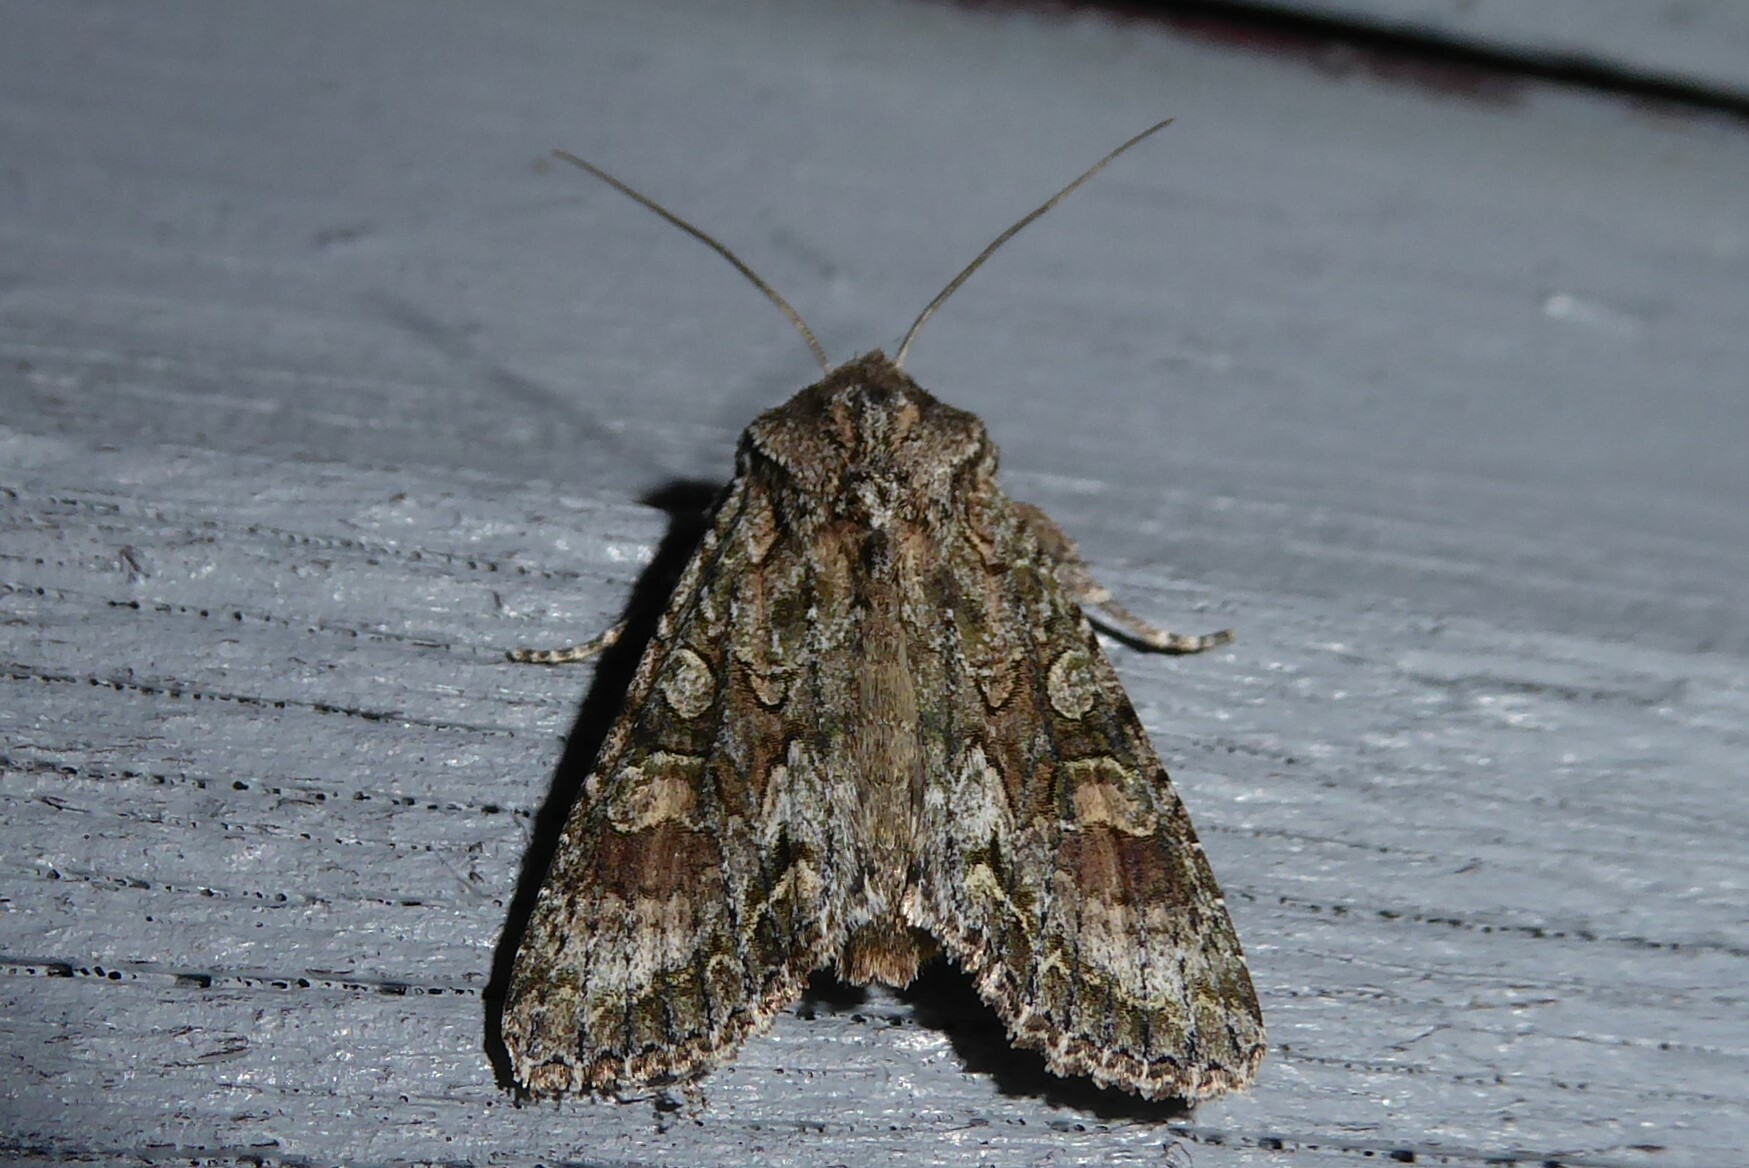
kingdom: Animalia
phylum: Arthropoda
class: Insecta
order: Lepidoptera
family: Noctuidae
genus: Ichneutica
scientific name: Ichneutica mutans
